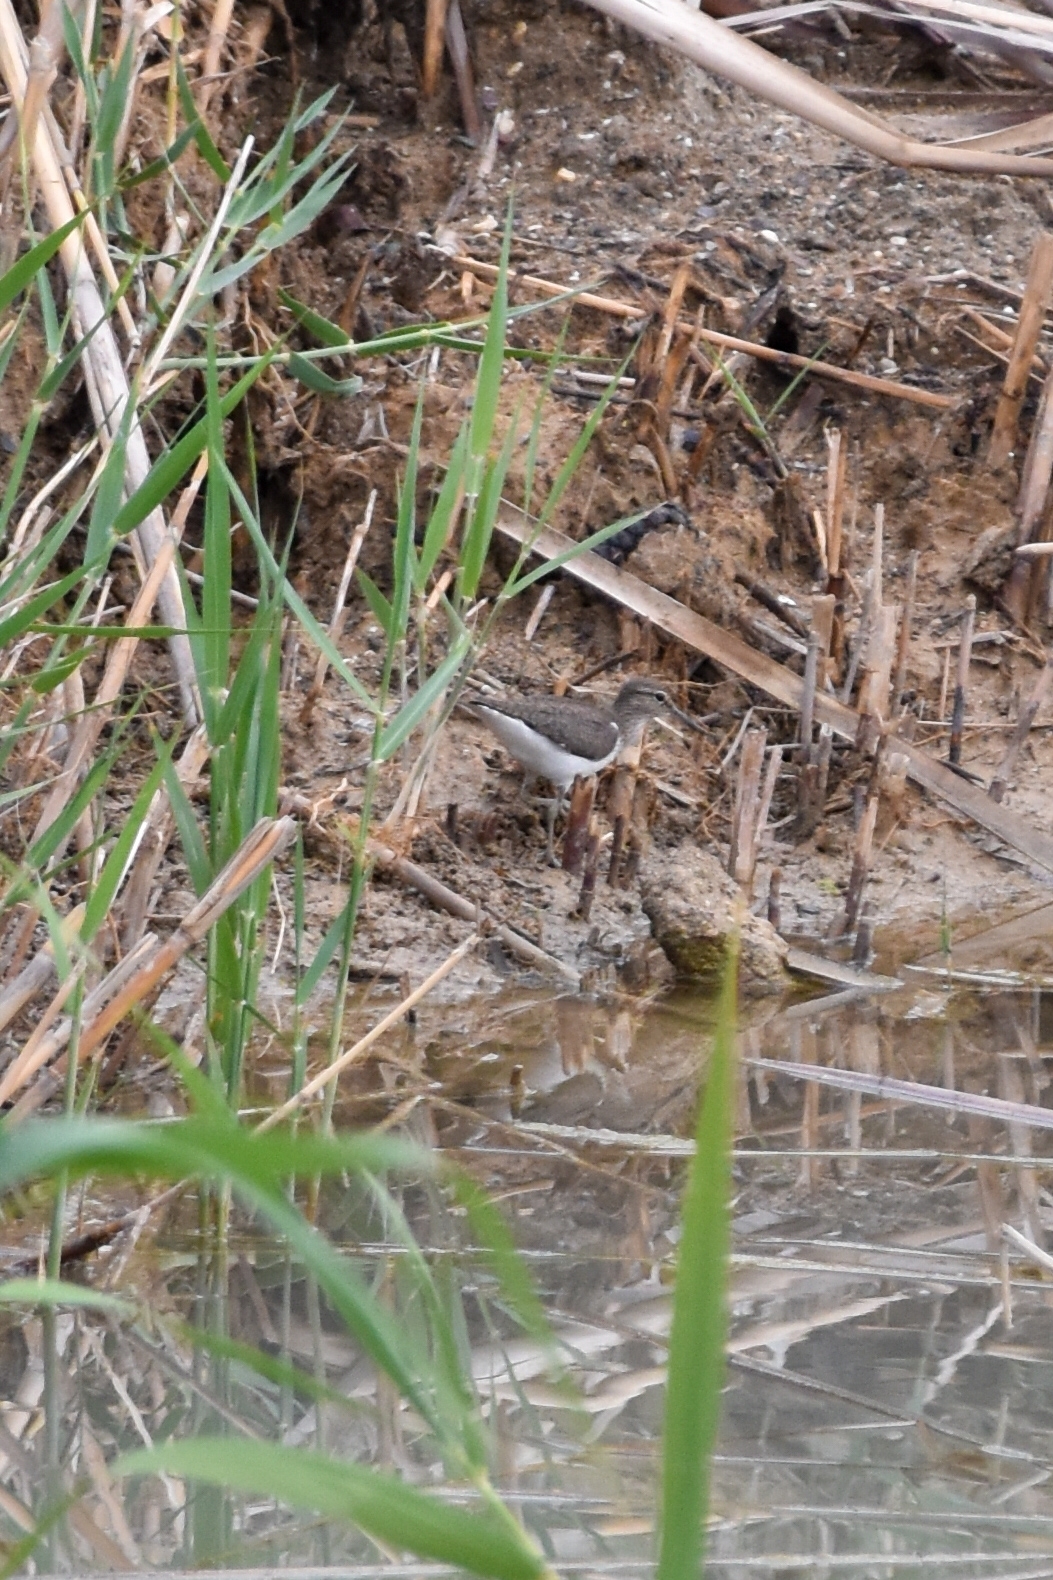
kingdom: Animalia
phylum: Chordata
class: Aves
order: Charadriiformes
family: Scolopacidae
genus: Actitis
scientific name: Actitis hypoleucos
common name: Common sandpiper
